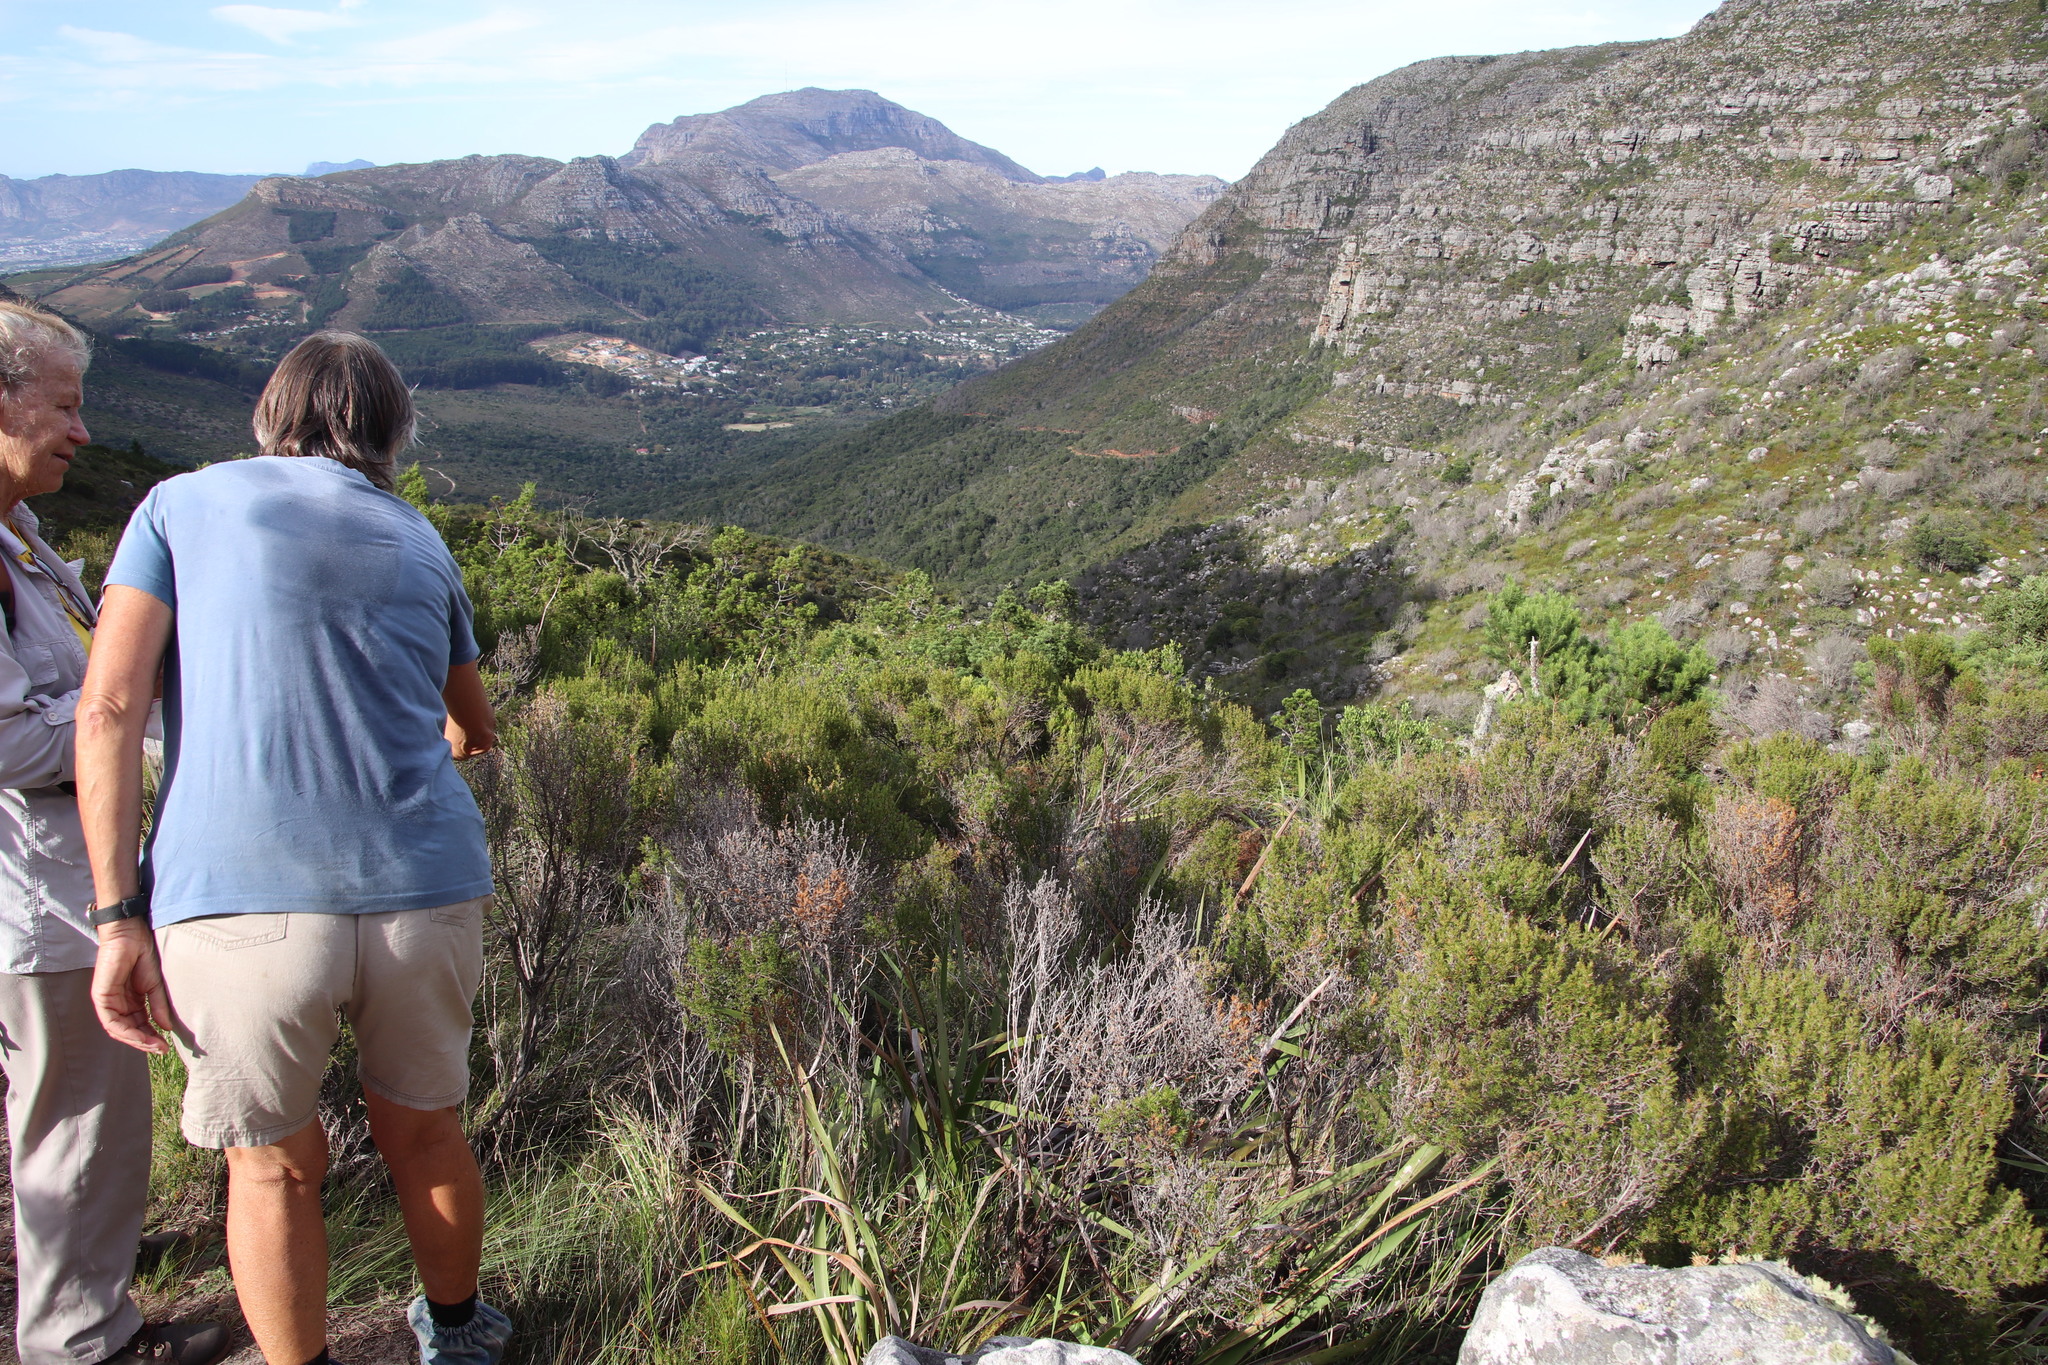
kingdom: Plantae
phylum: Tracheophyta
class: Magnoliopsida
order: Rosales
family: Rosaceae
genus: Cliffortia
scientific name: Cliffortia atrata
